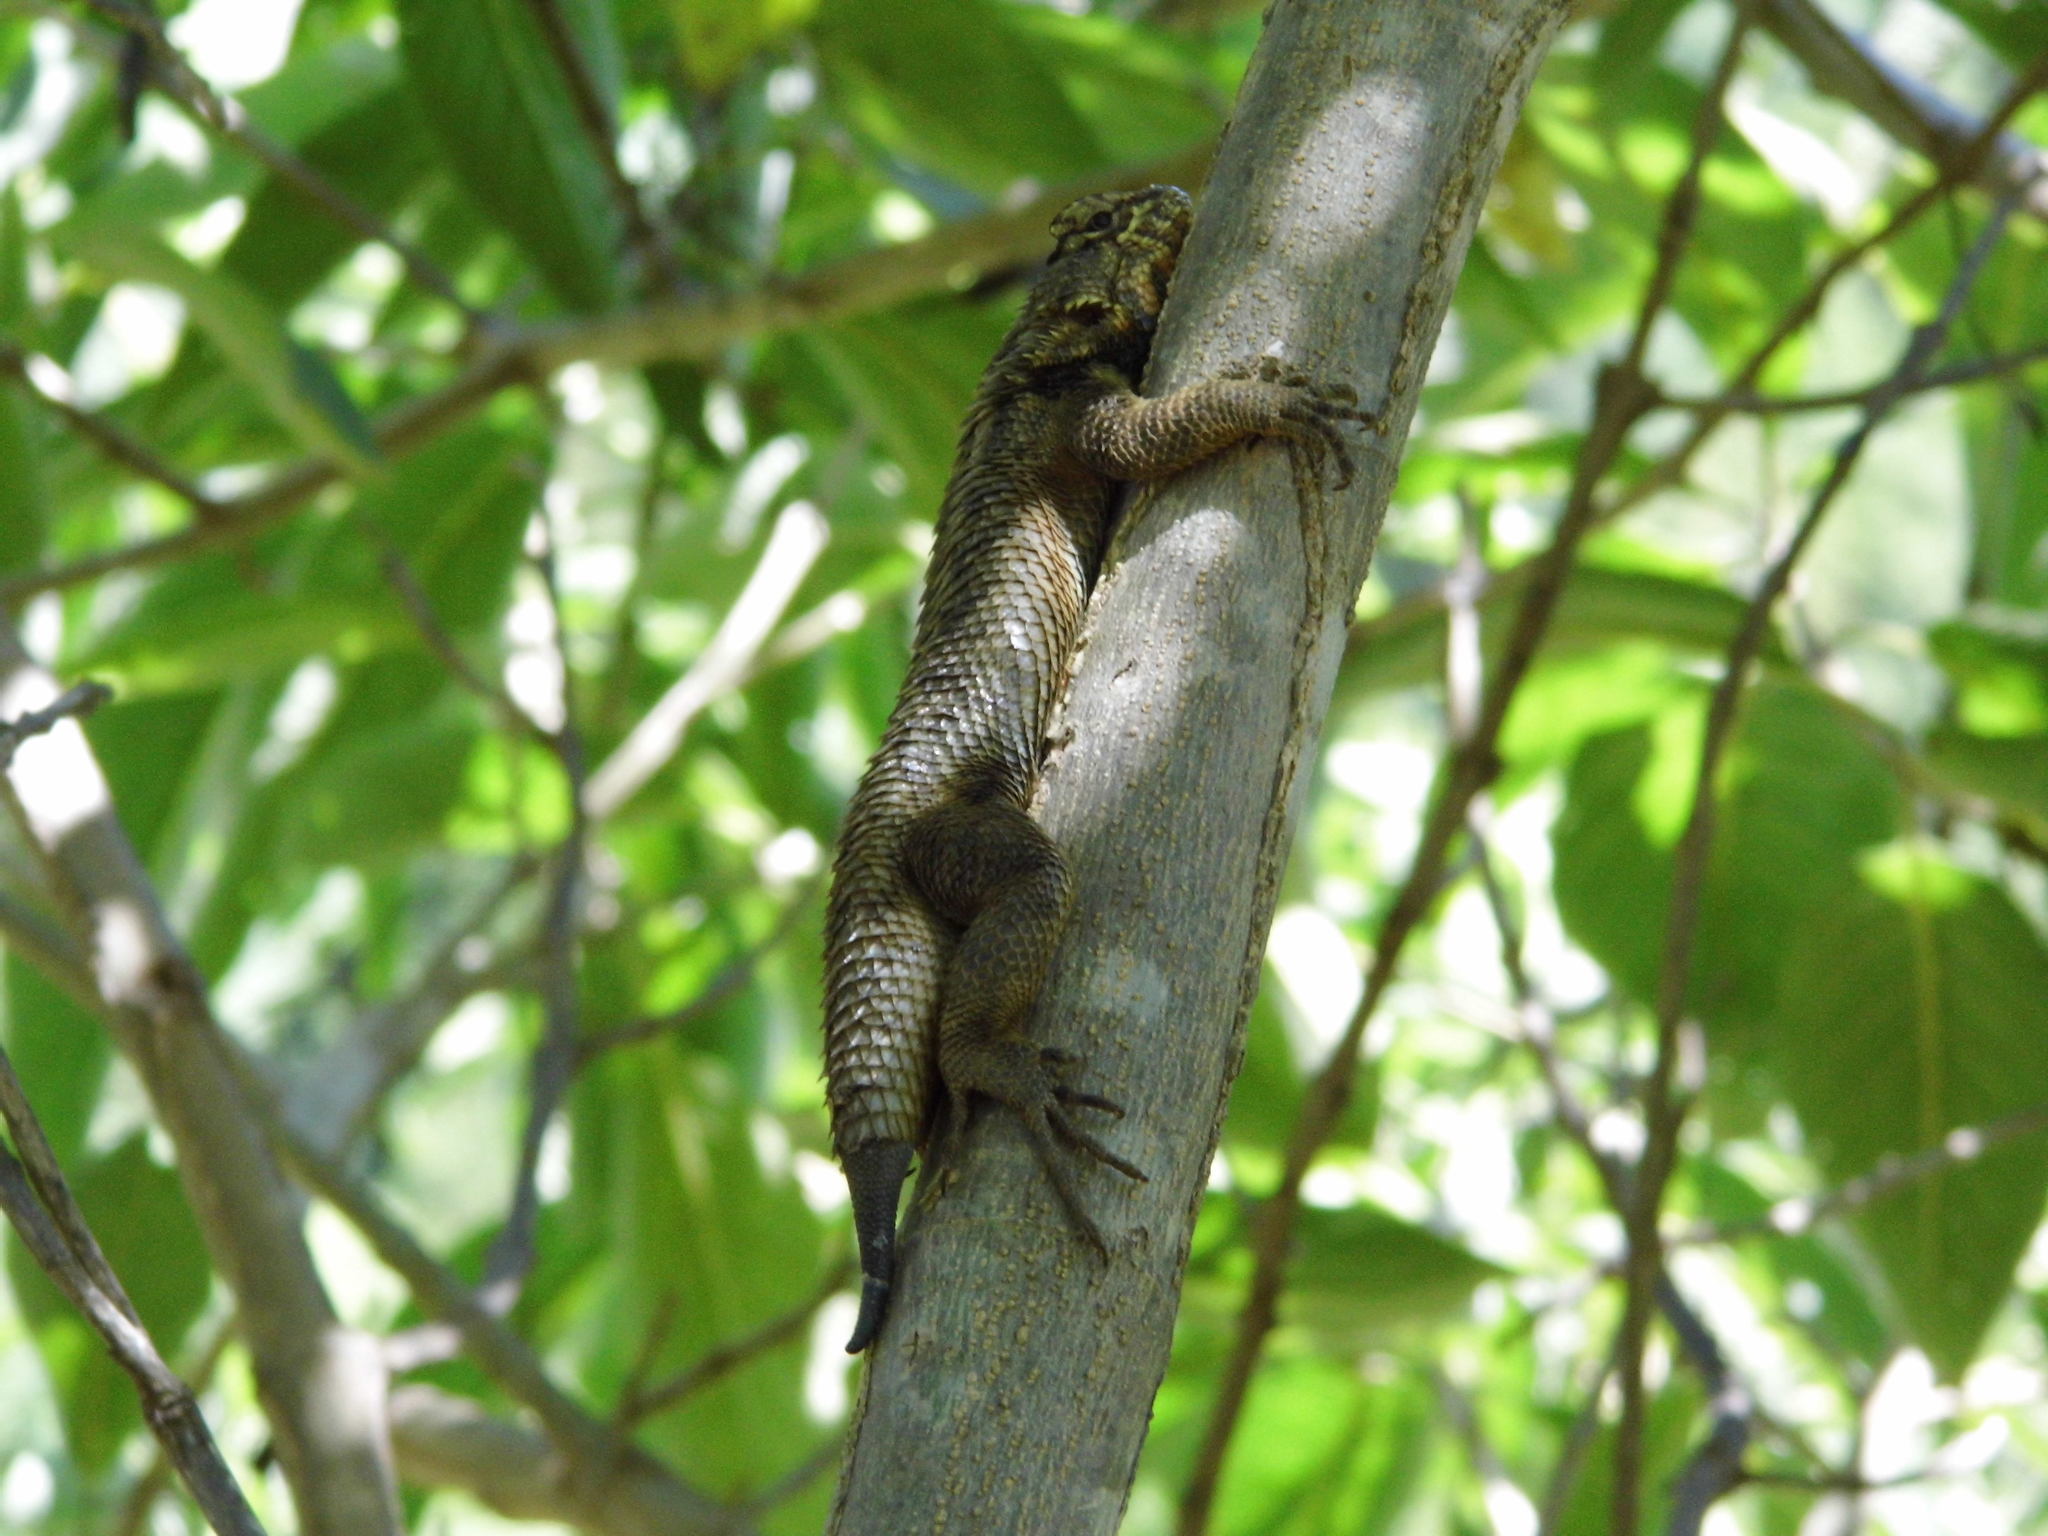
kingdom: Animalia
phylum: Chordata
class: Squamata
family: Phrynosomatidae
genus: Sceloporus
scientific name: Sceloporus spinosus
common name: Blue-spotted spiny lizard [caeruleopunctatus]
